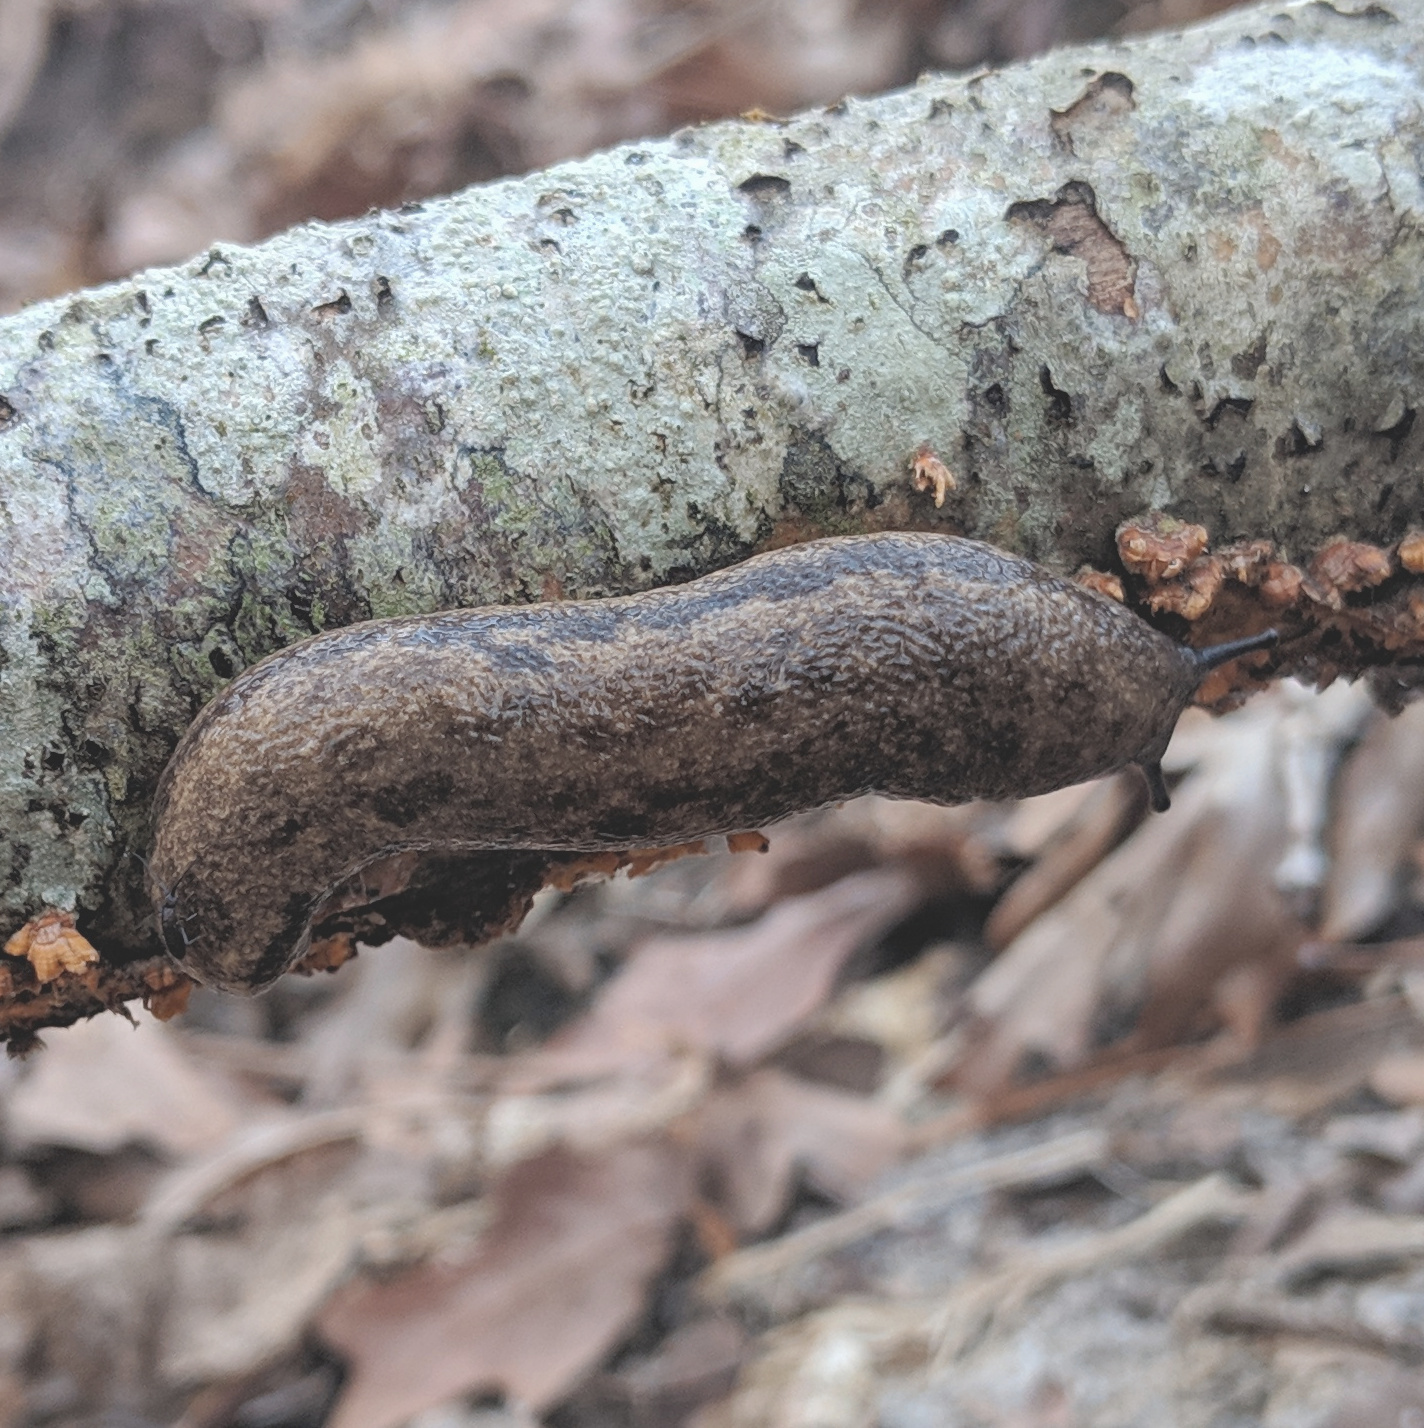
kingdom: Animalia
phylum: Mollusca
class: Gastropoda
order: Stylommatophora
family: Philomycidae
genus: Megapallifera
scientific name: Megapallifera mutabilis
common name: Changeable mantleslug
